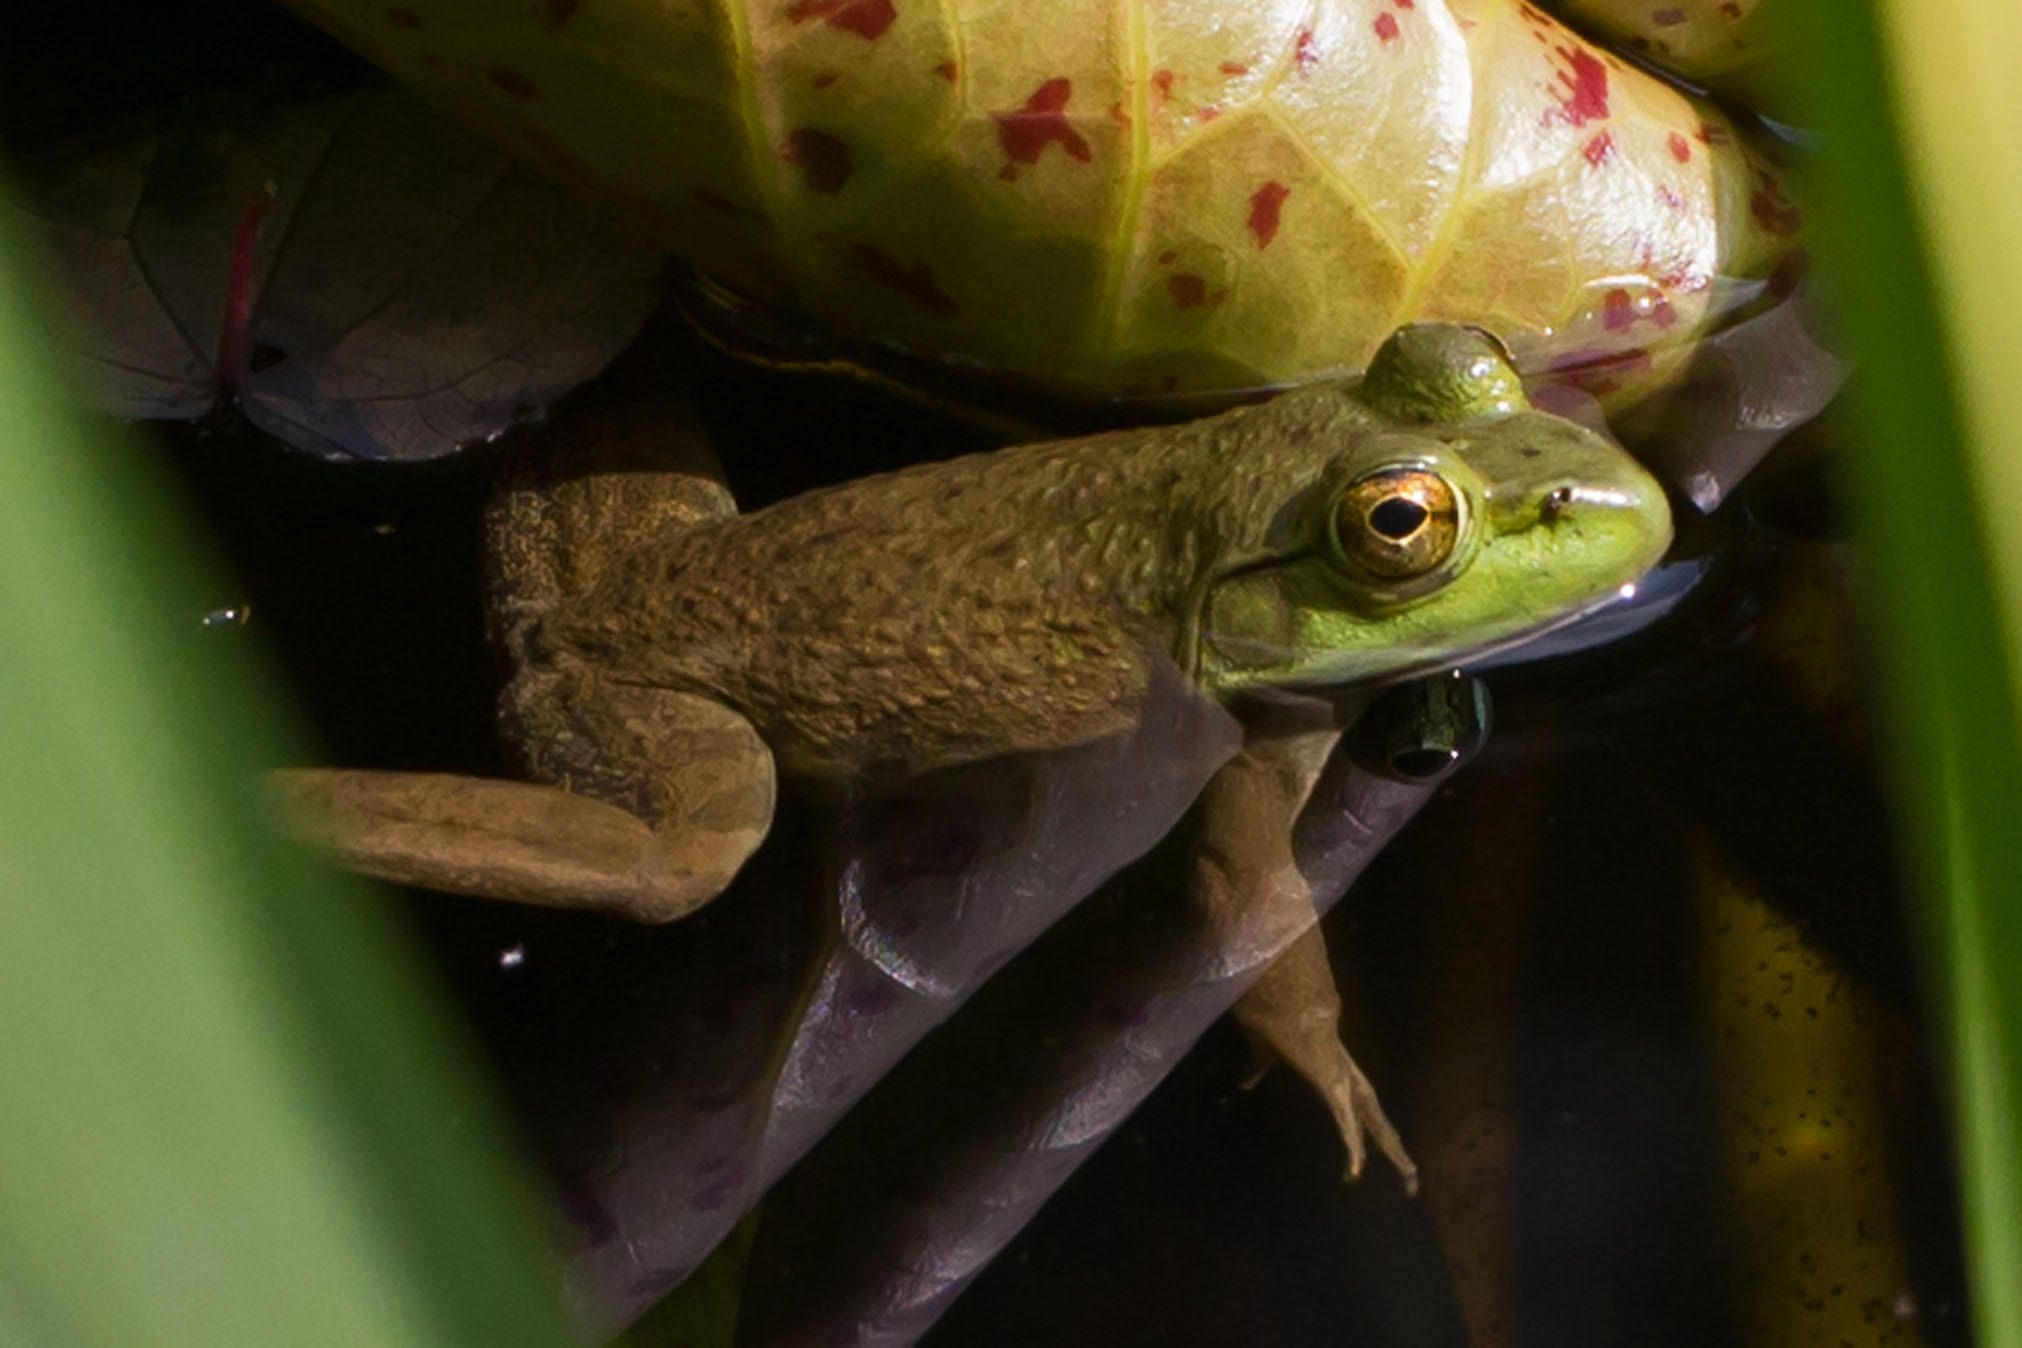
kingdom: Animalia
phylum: Chordata
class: Amphibia
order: Anura
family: Ranidae
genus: Lithobates
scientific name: Lithobates catesbeianus
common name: American bullfrog
